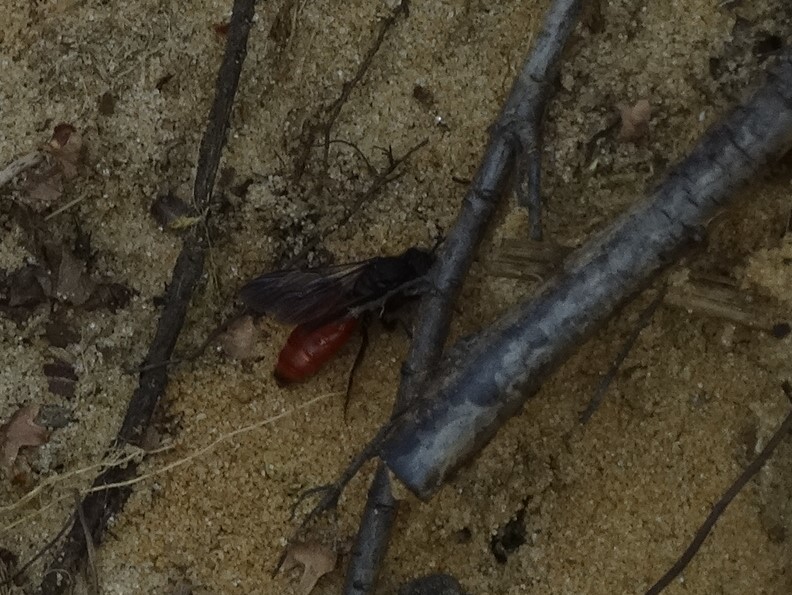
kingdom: Animalia
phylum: Arthropoda
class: Insecta
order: Hymenoptera
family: Halictidae
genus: Sphecodes
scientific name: Sphecodes albilabris
